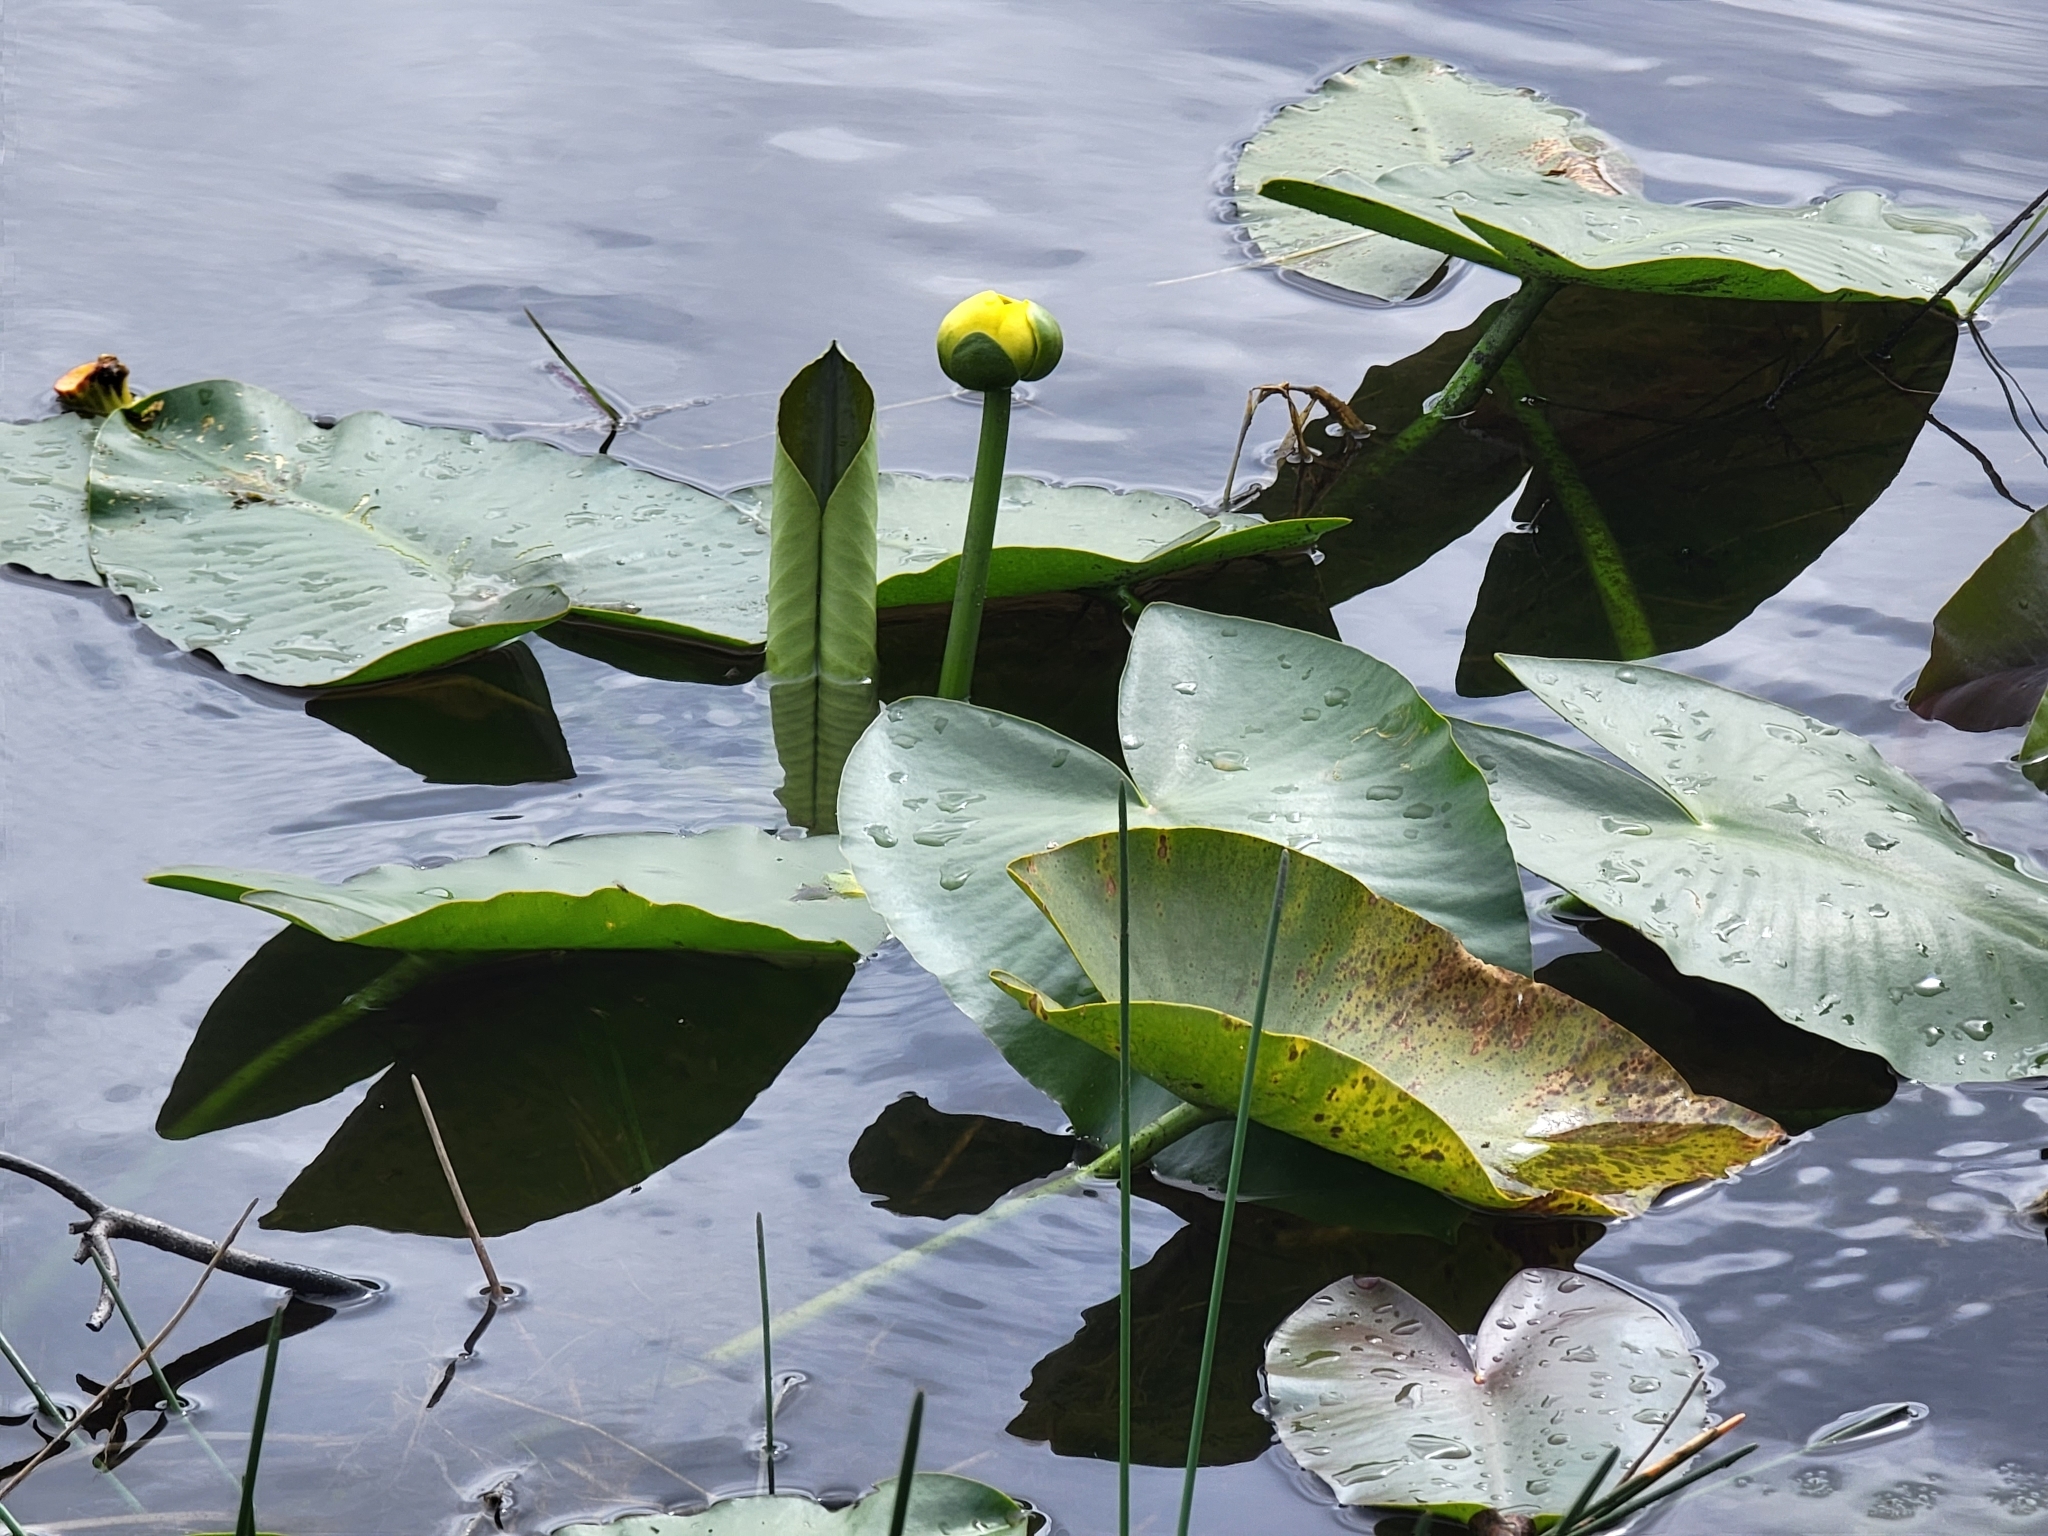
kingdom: Plantae
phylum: Tracheophyta
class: Magnoliopsida
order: Nymphaeales
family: Nymphaeaceae
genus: Nuphar
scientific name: Nuphar advena
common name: Spatter-dock
